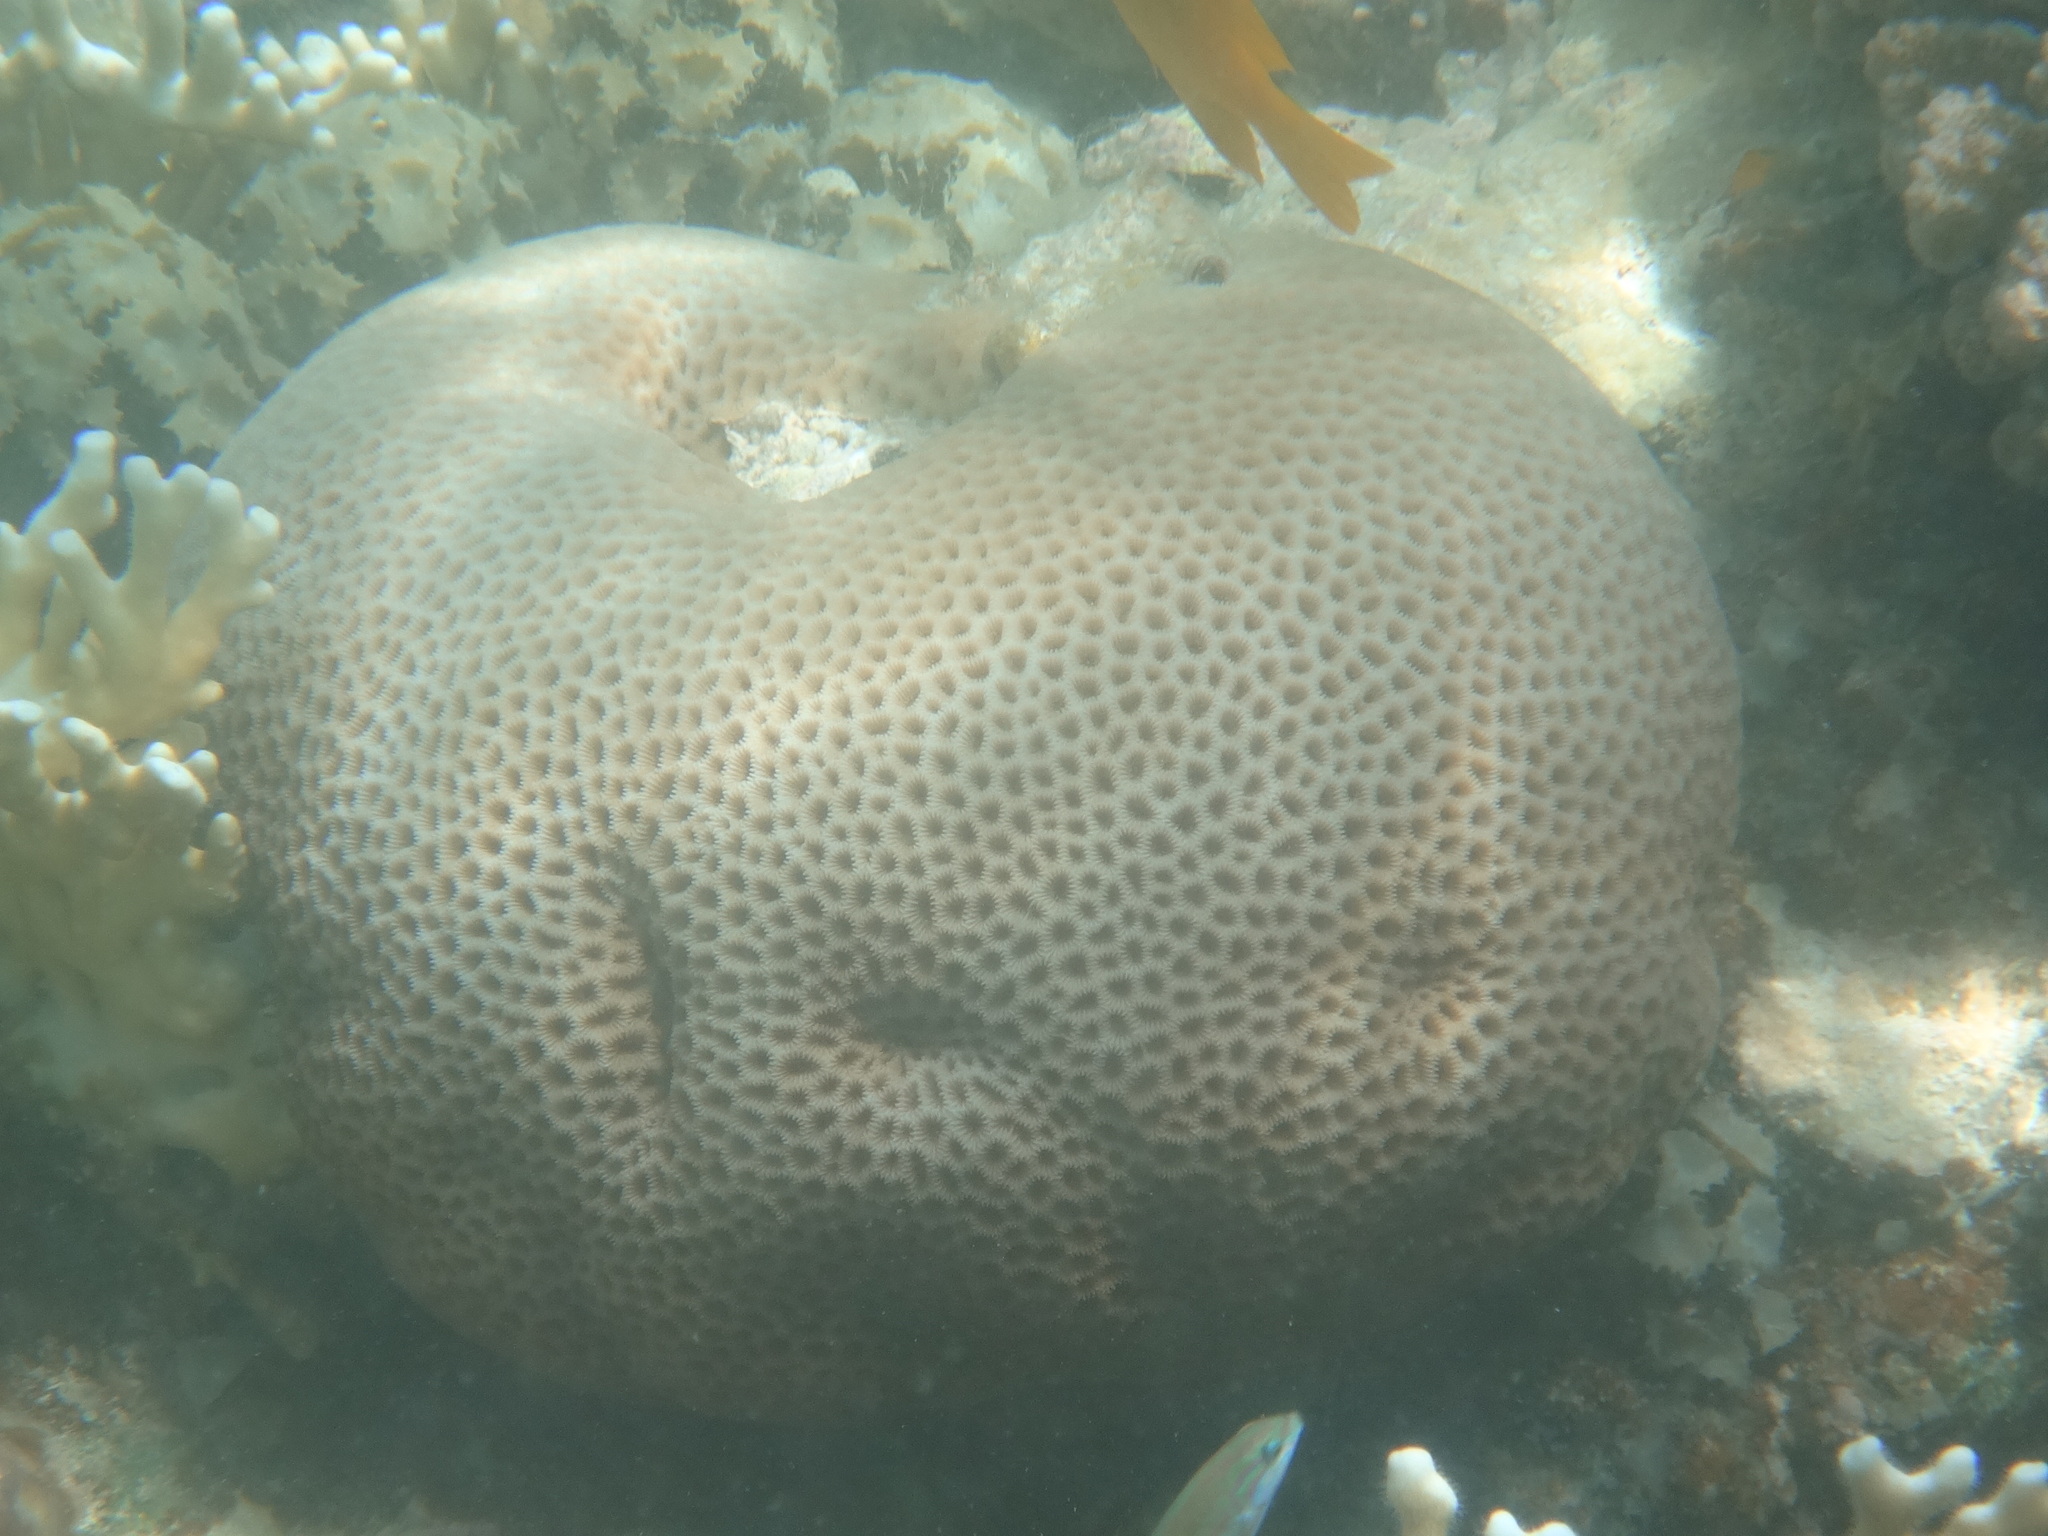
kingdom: Animalia
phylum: Cnidaria
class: Anthozoa
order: Scleractinia
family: Merulinidae
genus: Goniastrea
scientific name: Goniastrea pectinata
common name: Lesser star coral
